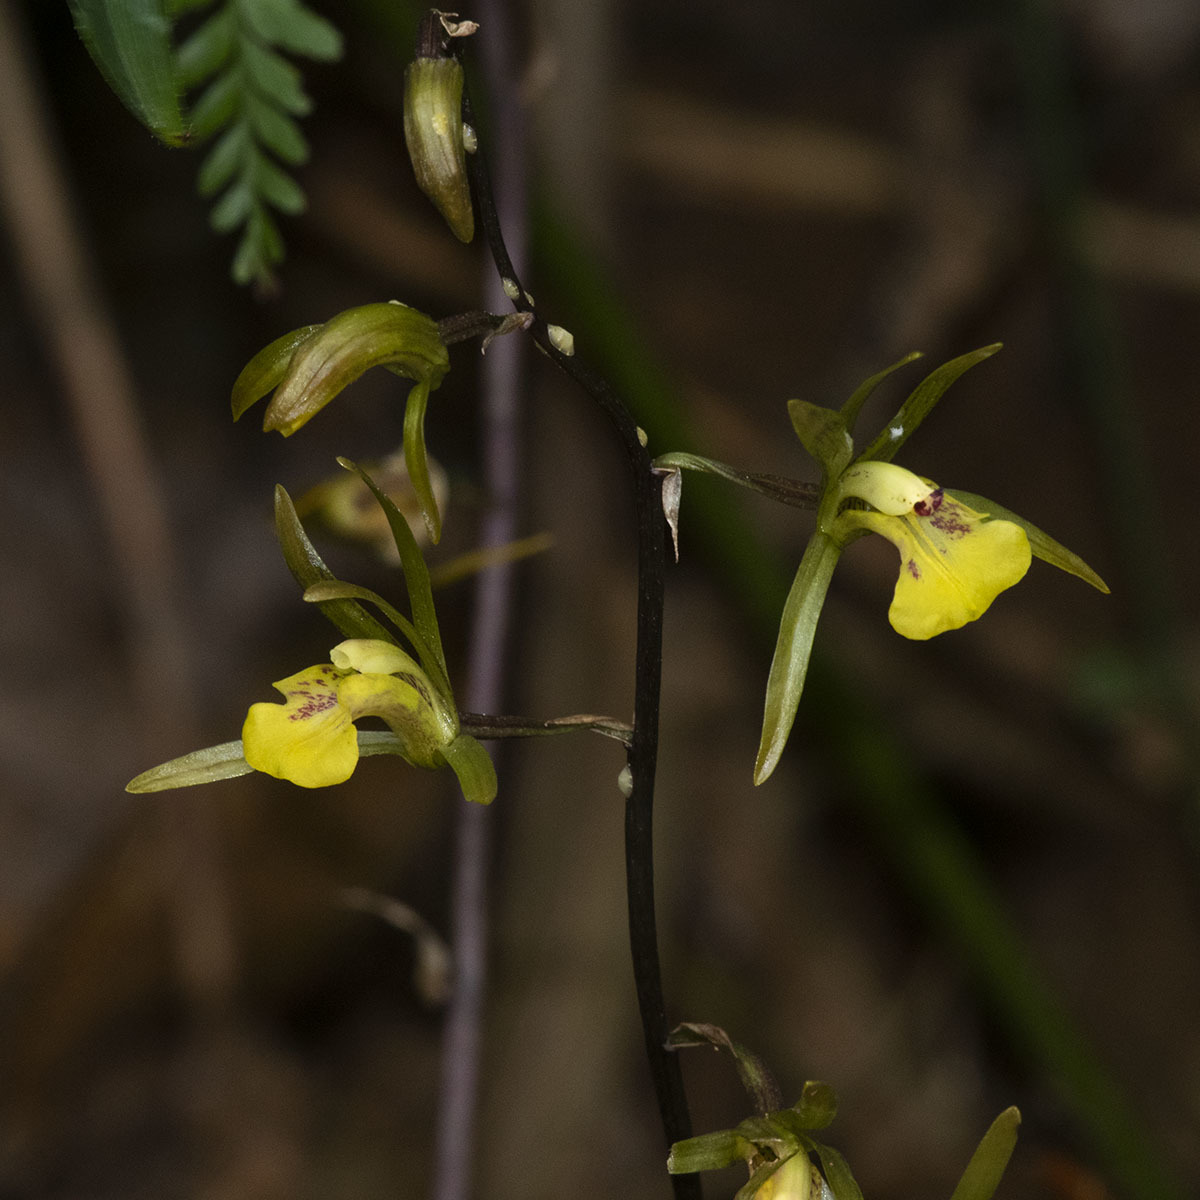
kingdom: Plantae
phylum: Tracheophyta
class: Liliopsida
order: Asparagales
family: Orchidaceae
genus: Tainia
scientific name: Tainia bicornis
